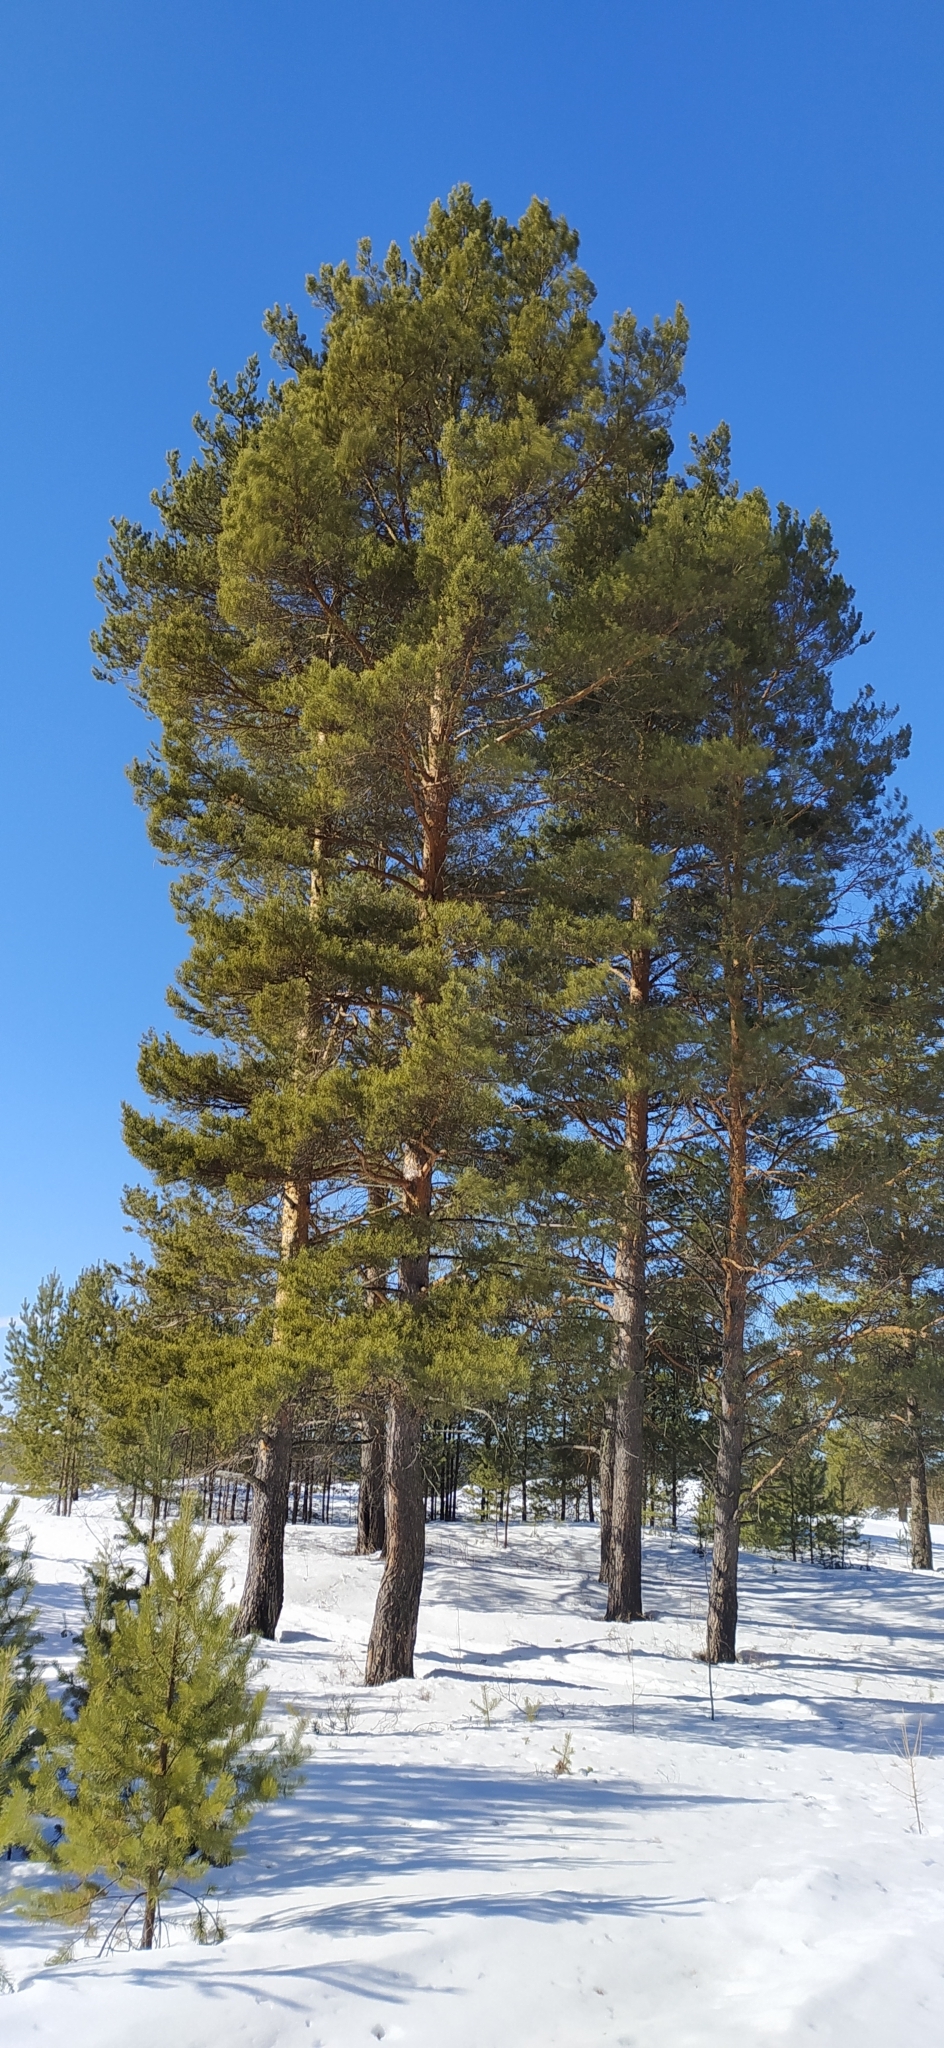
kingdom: Plantae
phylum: Tracheophyta
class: Pinopsida
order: Pinales
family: Pinaceae
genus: Pinus
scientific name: Pinus sylvestris
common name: Scots pine
